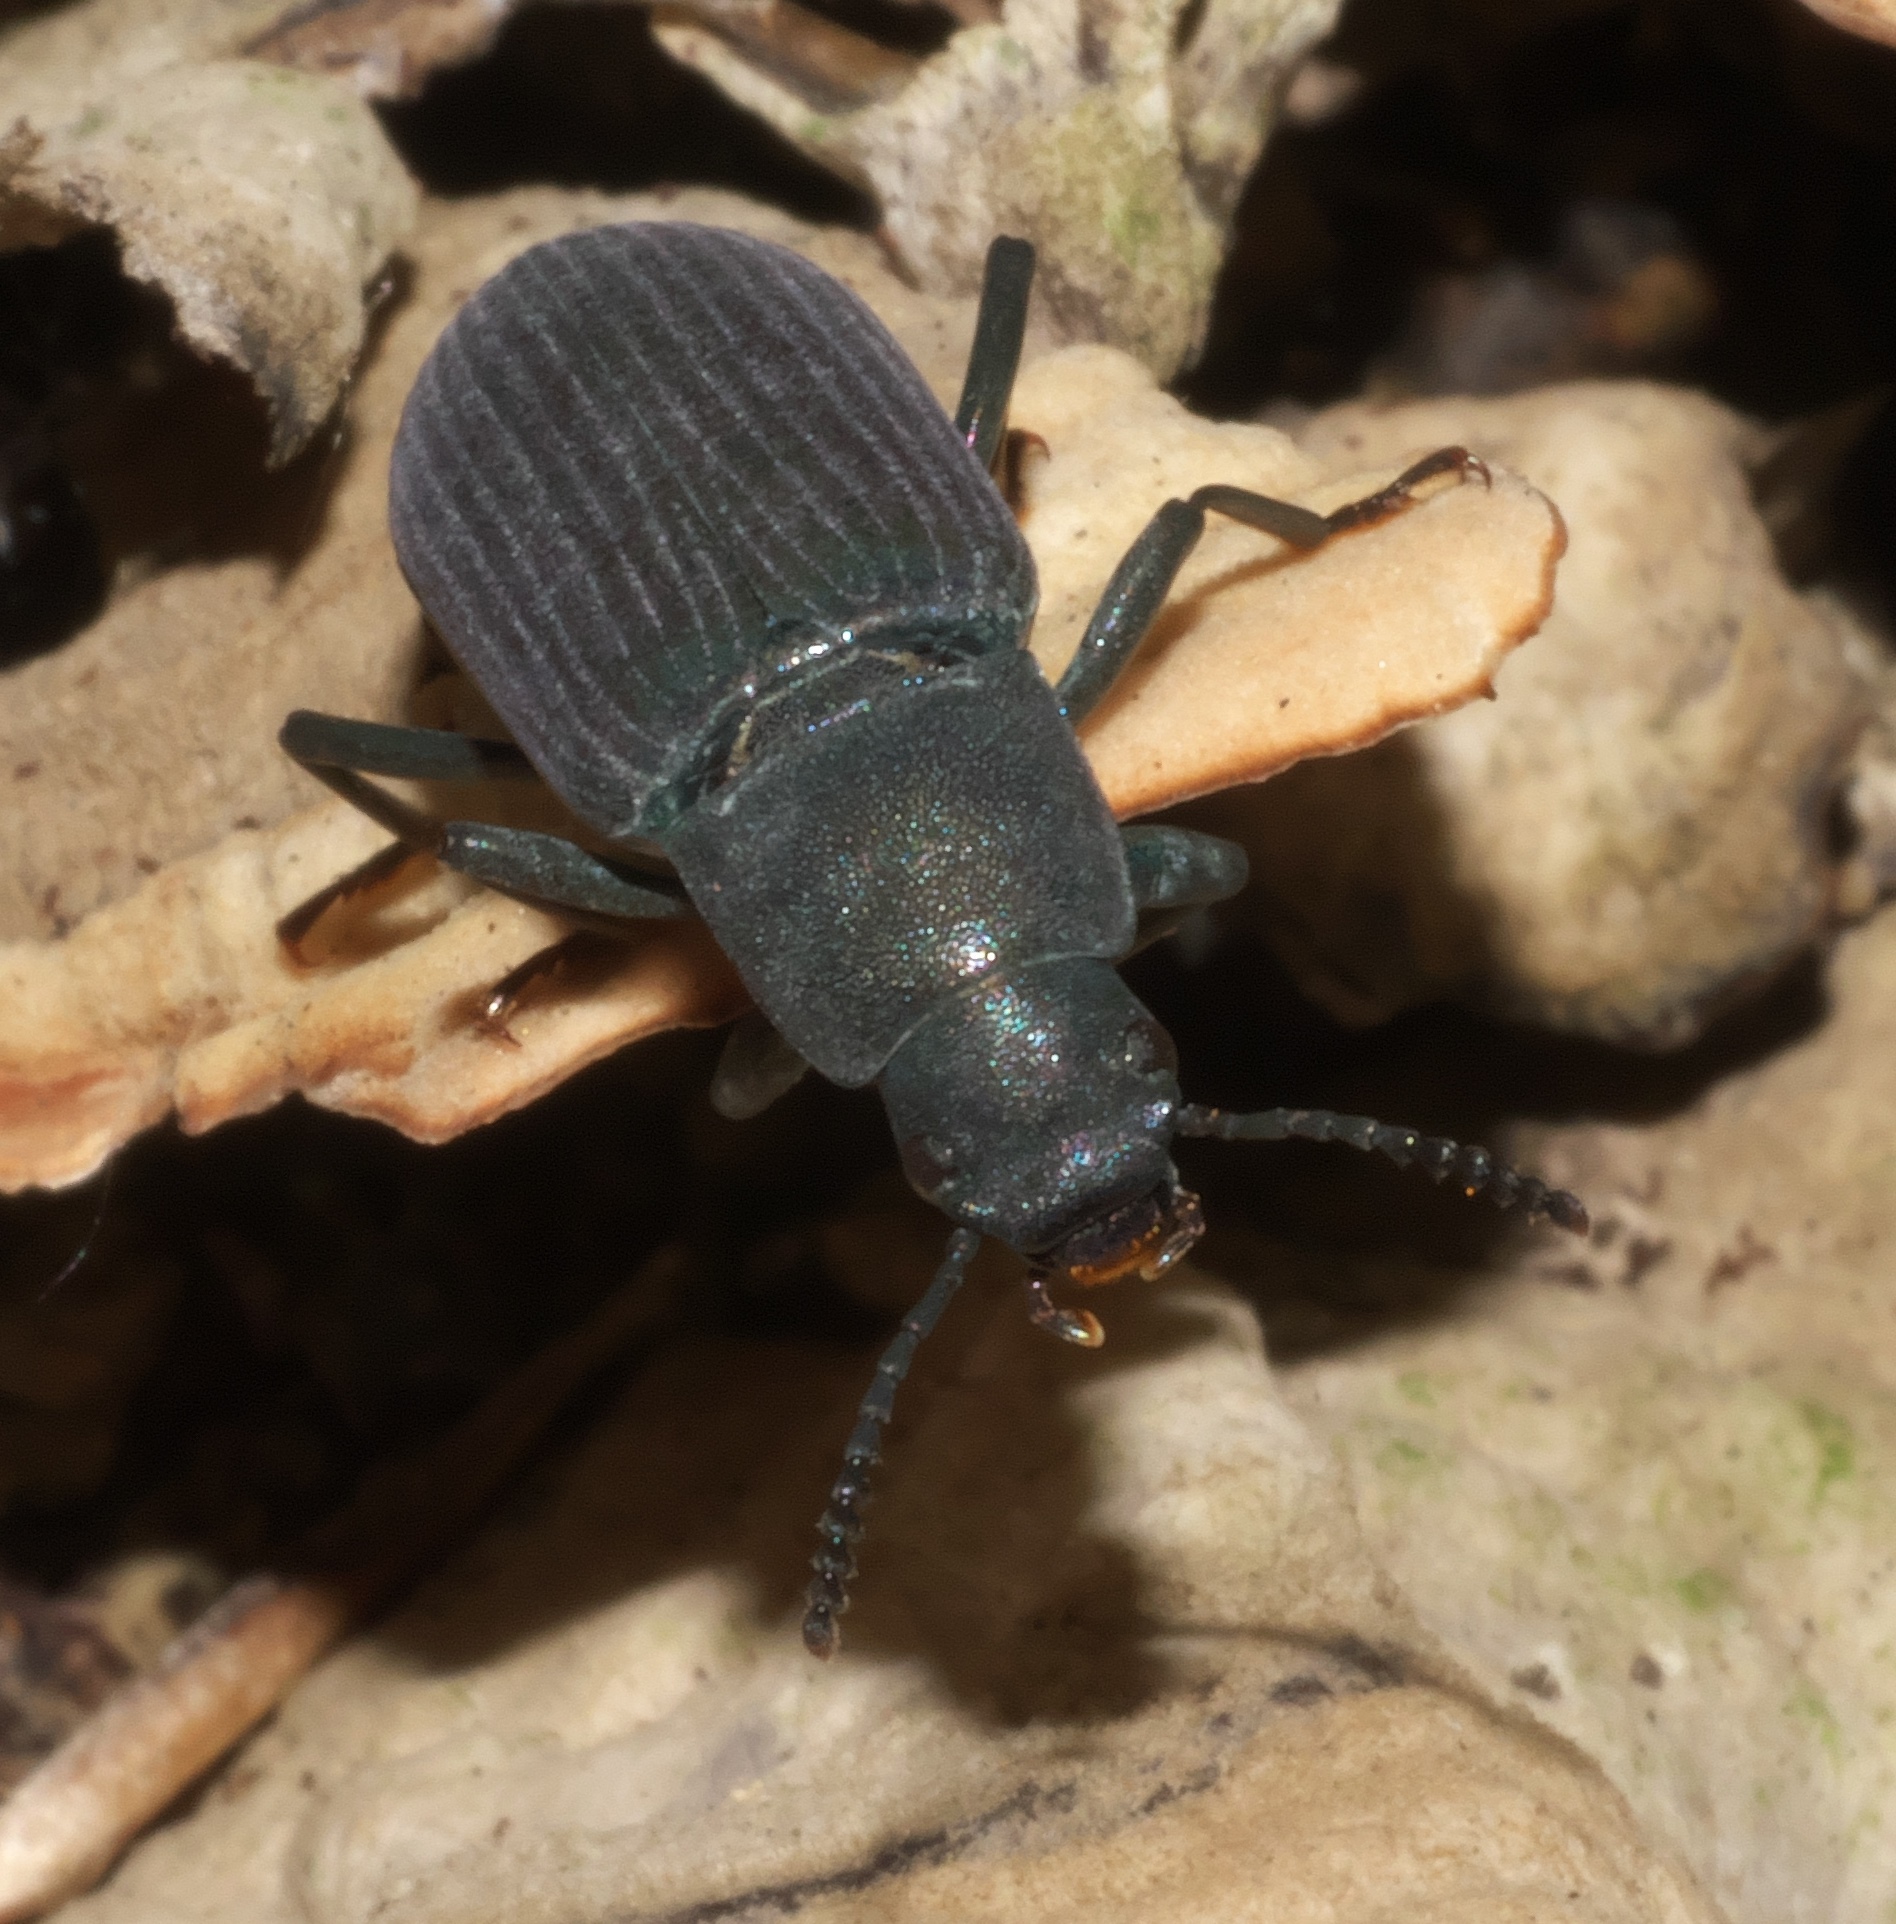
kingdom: Animalia
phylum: Arthropoda
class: Insecta
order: Coleoptera
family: Tenebrionidae
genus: Xylopinus
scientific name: Xylopinus saperdoides
